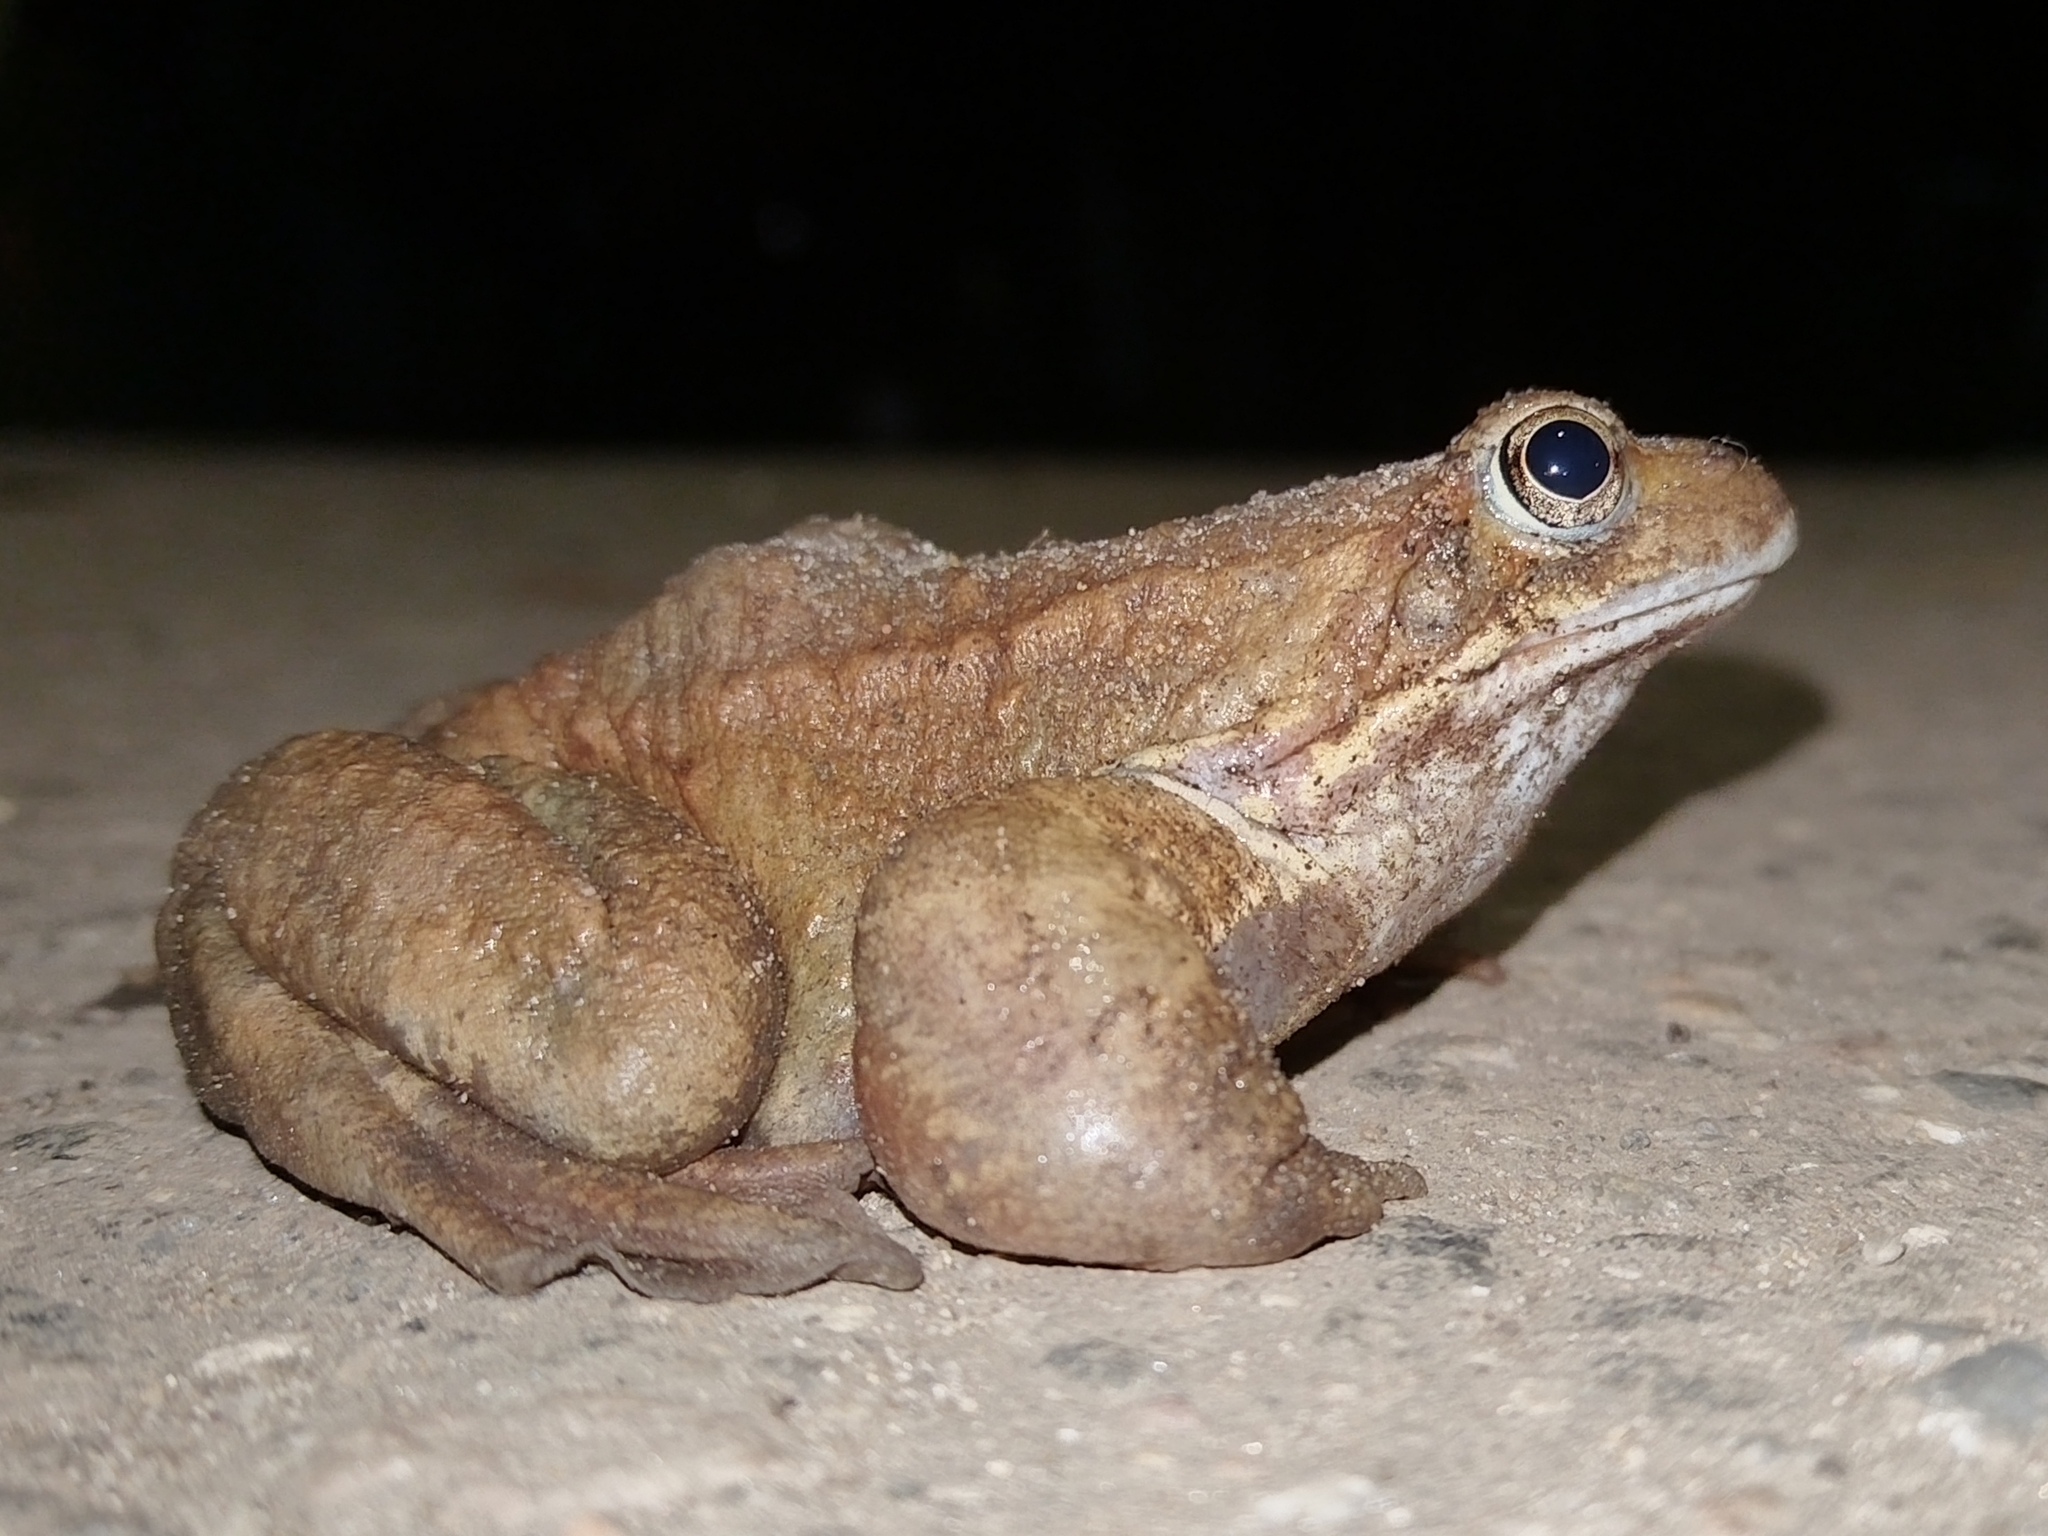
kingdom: Animalia
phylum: Chordata
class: Amphibia
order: Anura
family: Ranidae
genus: Rana
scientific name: Rana temporaria
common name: Common frog
